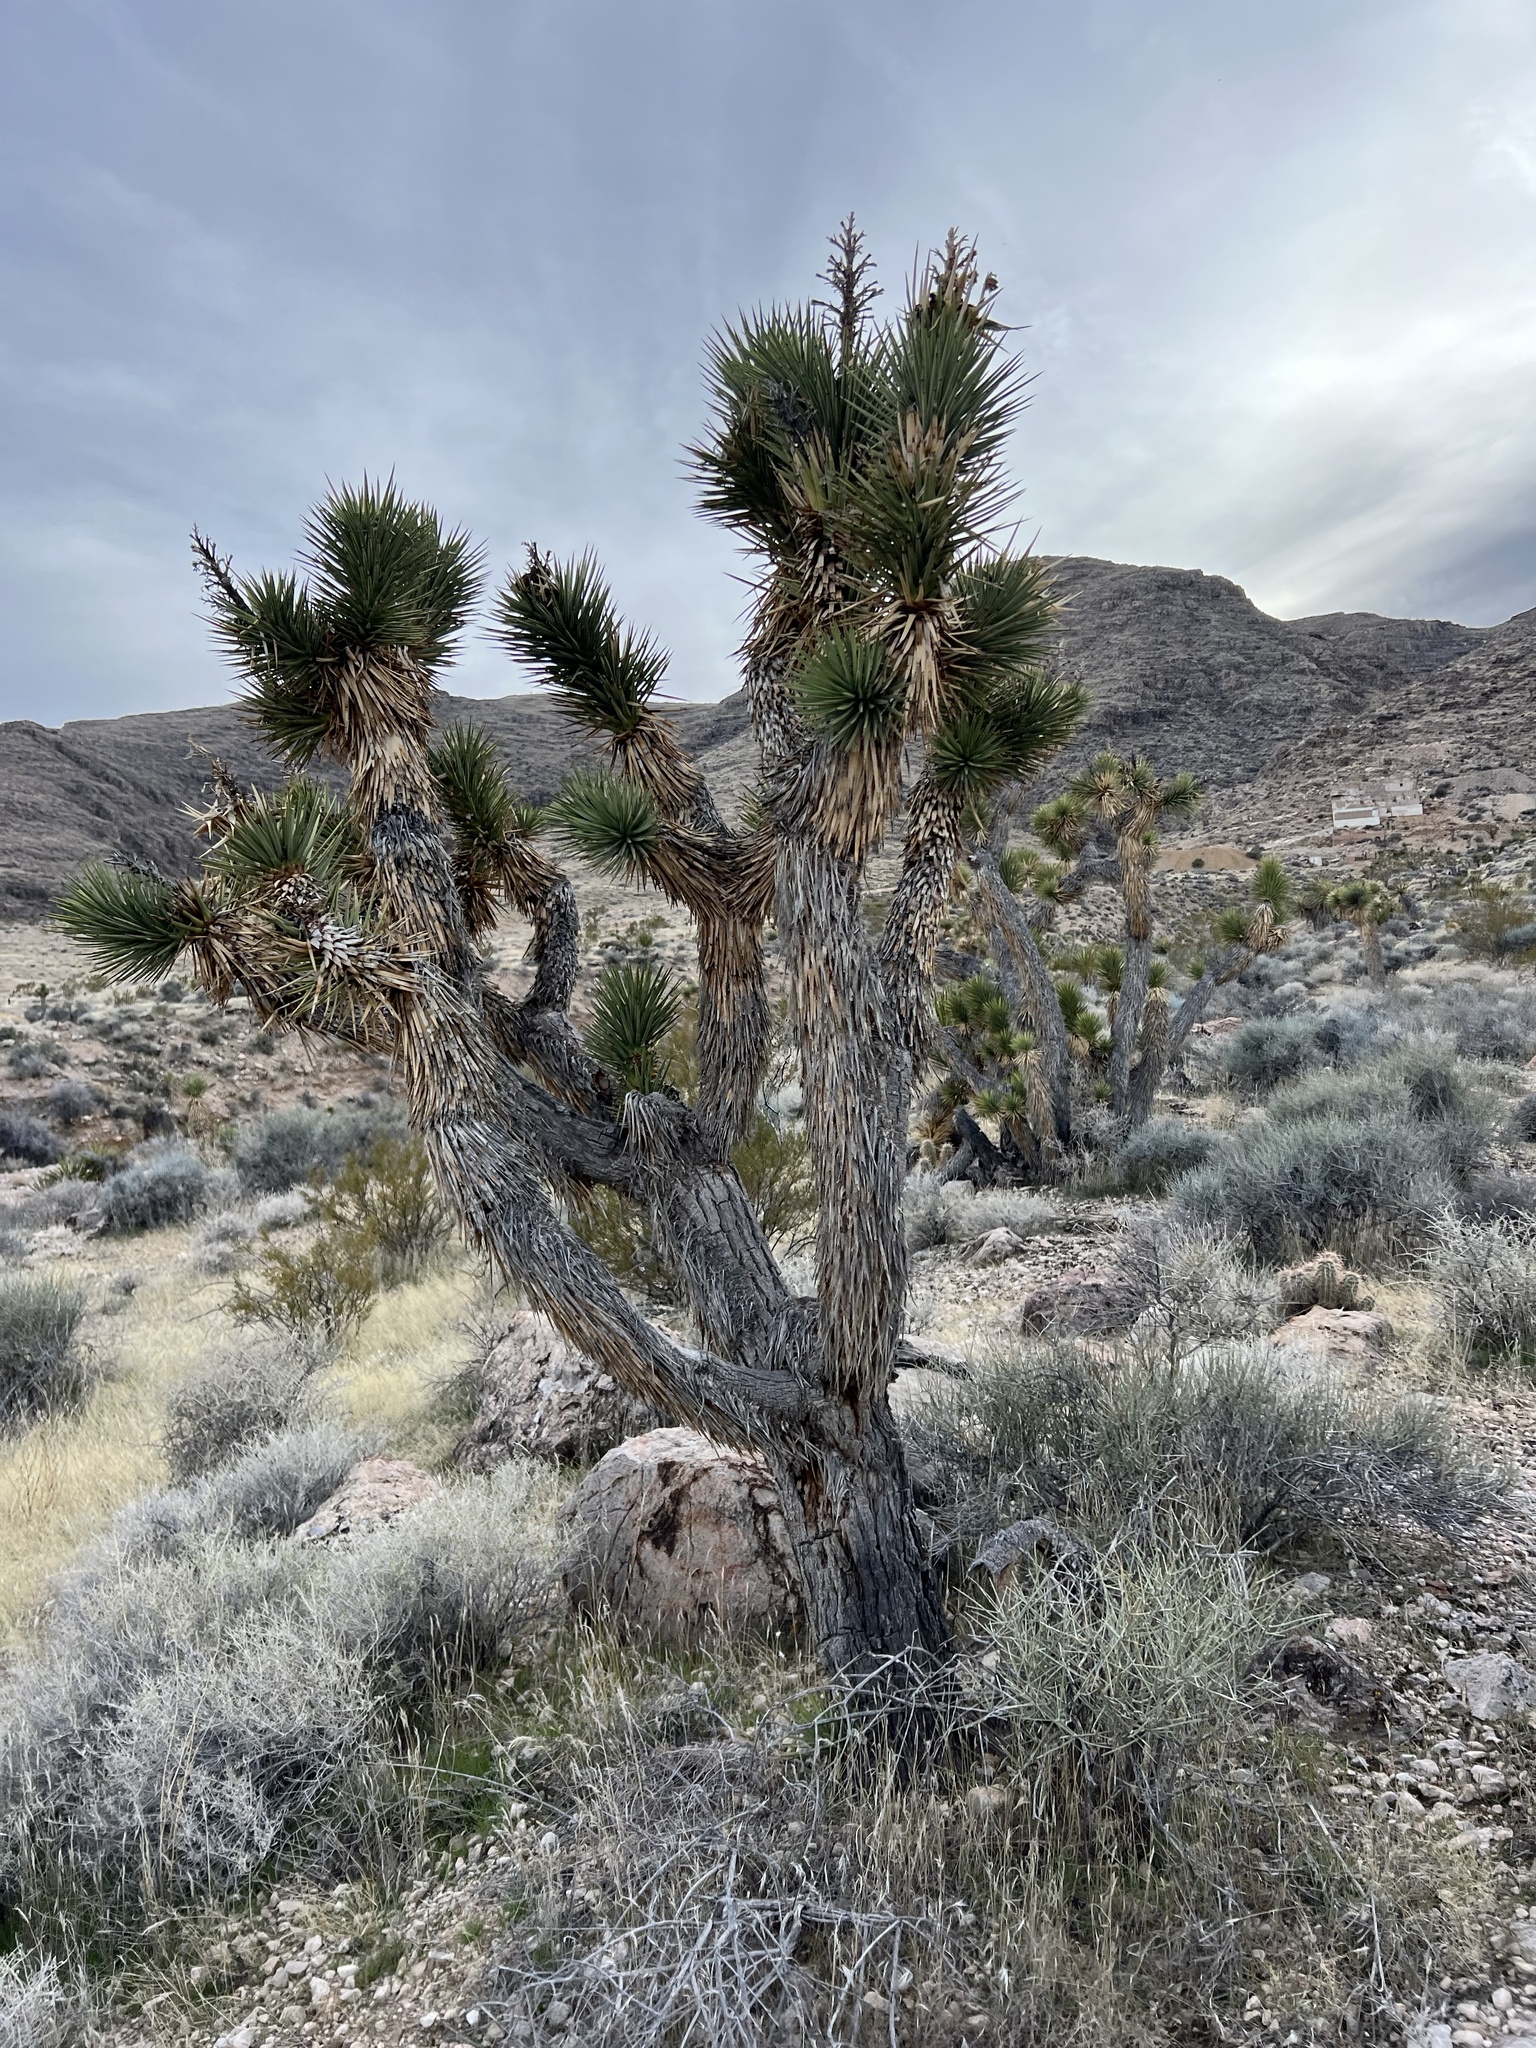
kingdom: Plantae
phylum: Tracheophyta
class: Liliopsida
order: Asparagales
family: Asparagaceae
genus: Yucca
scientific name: Yucca brevifolia
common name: Joshua tree
